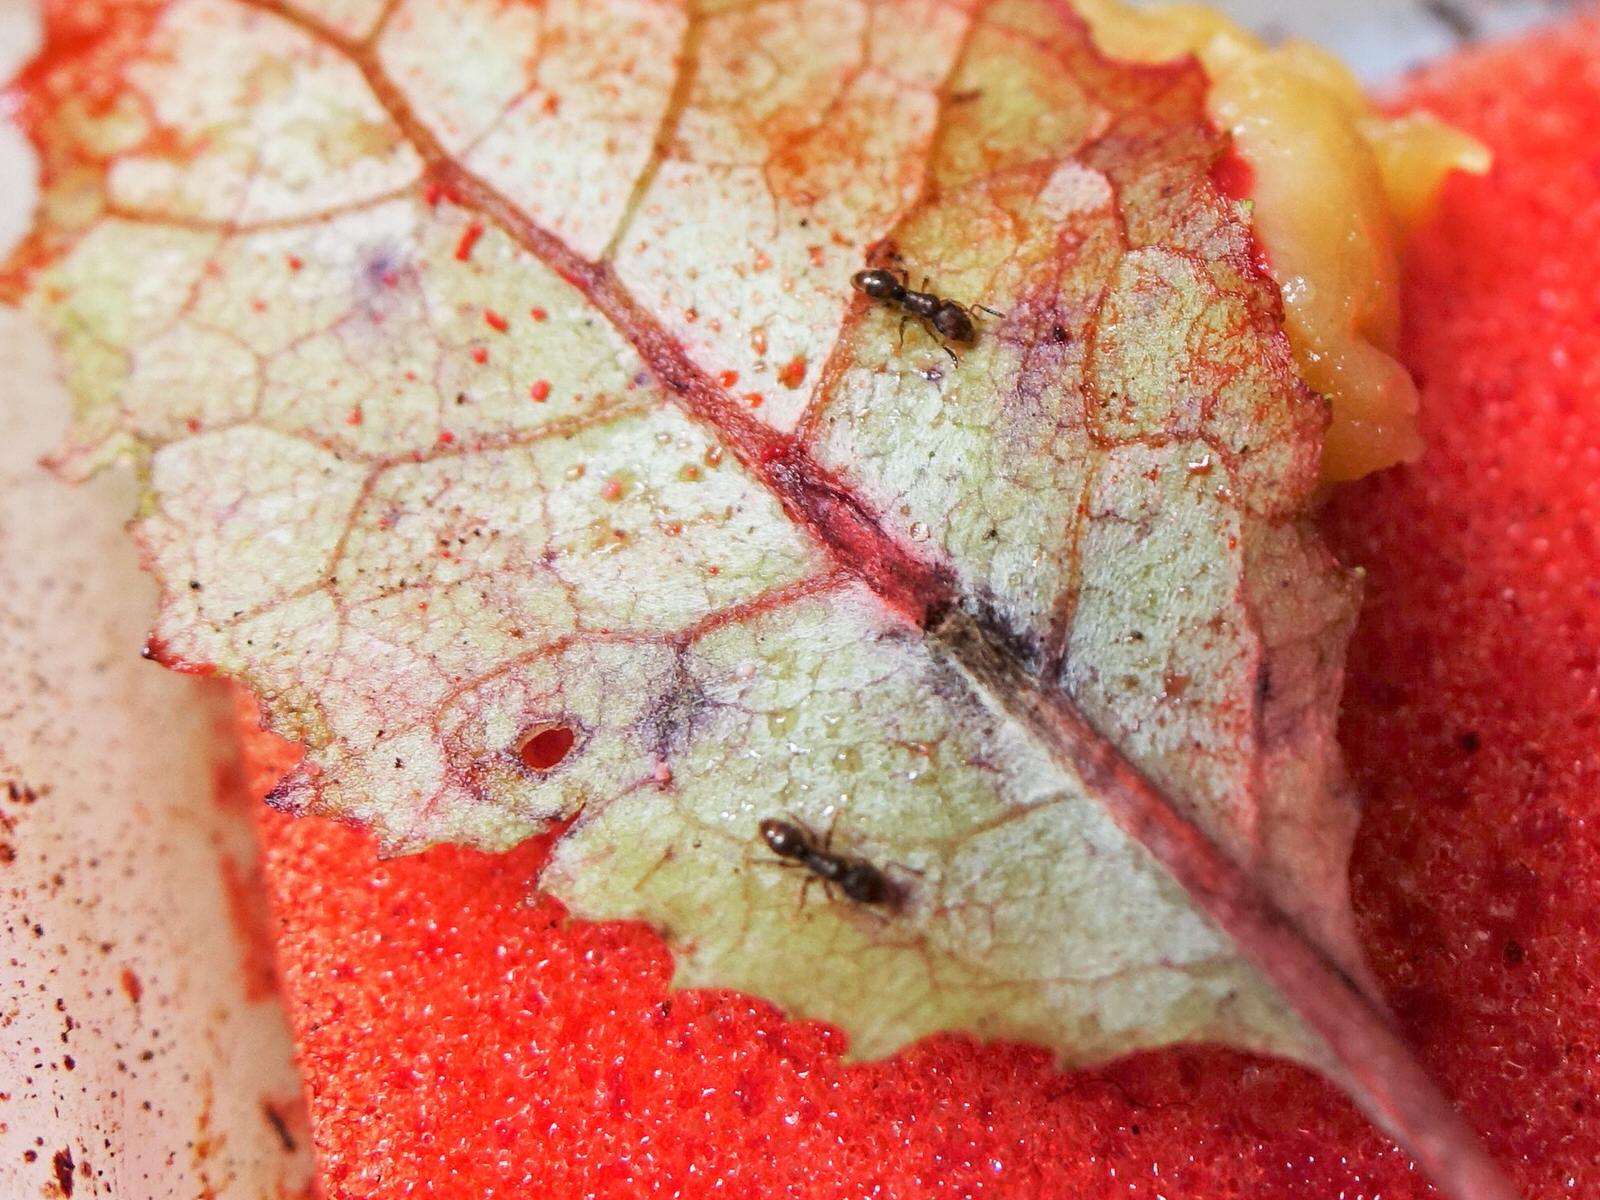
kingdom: Animalia
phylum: Arthropoda
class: Insecta
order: Hymenoptera
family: Formicidae
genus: Heteroponera
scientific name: Heteroponera brounii
